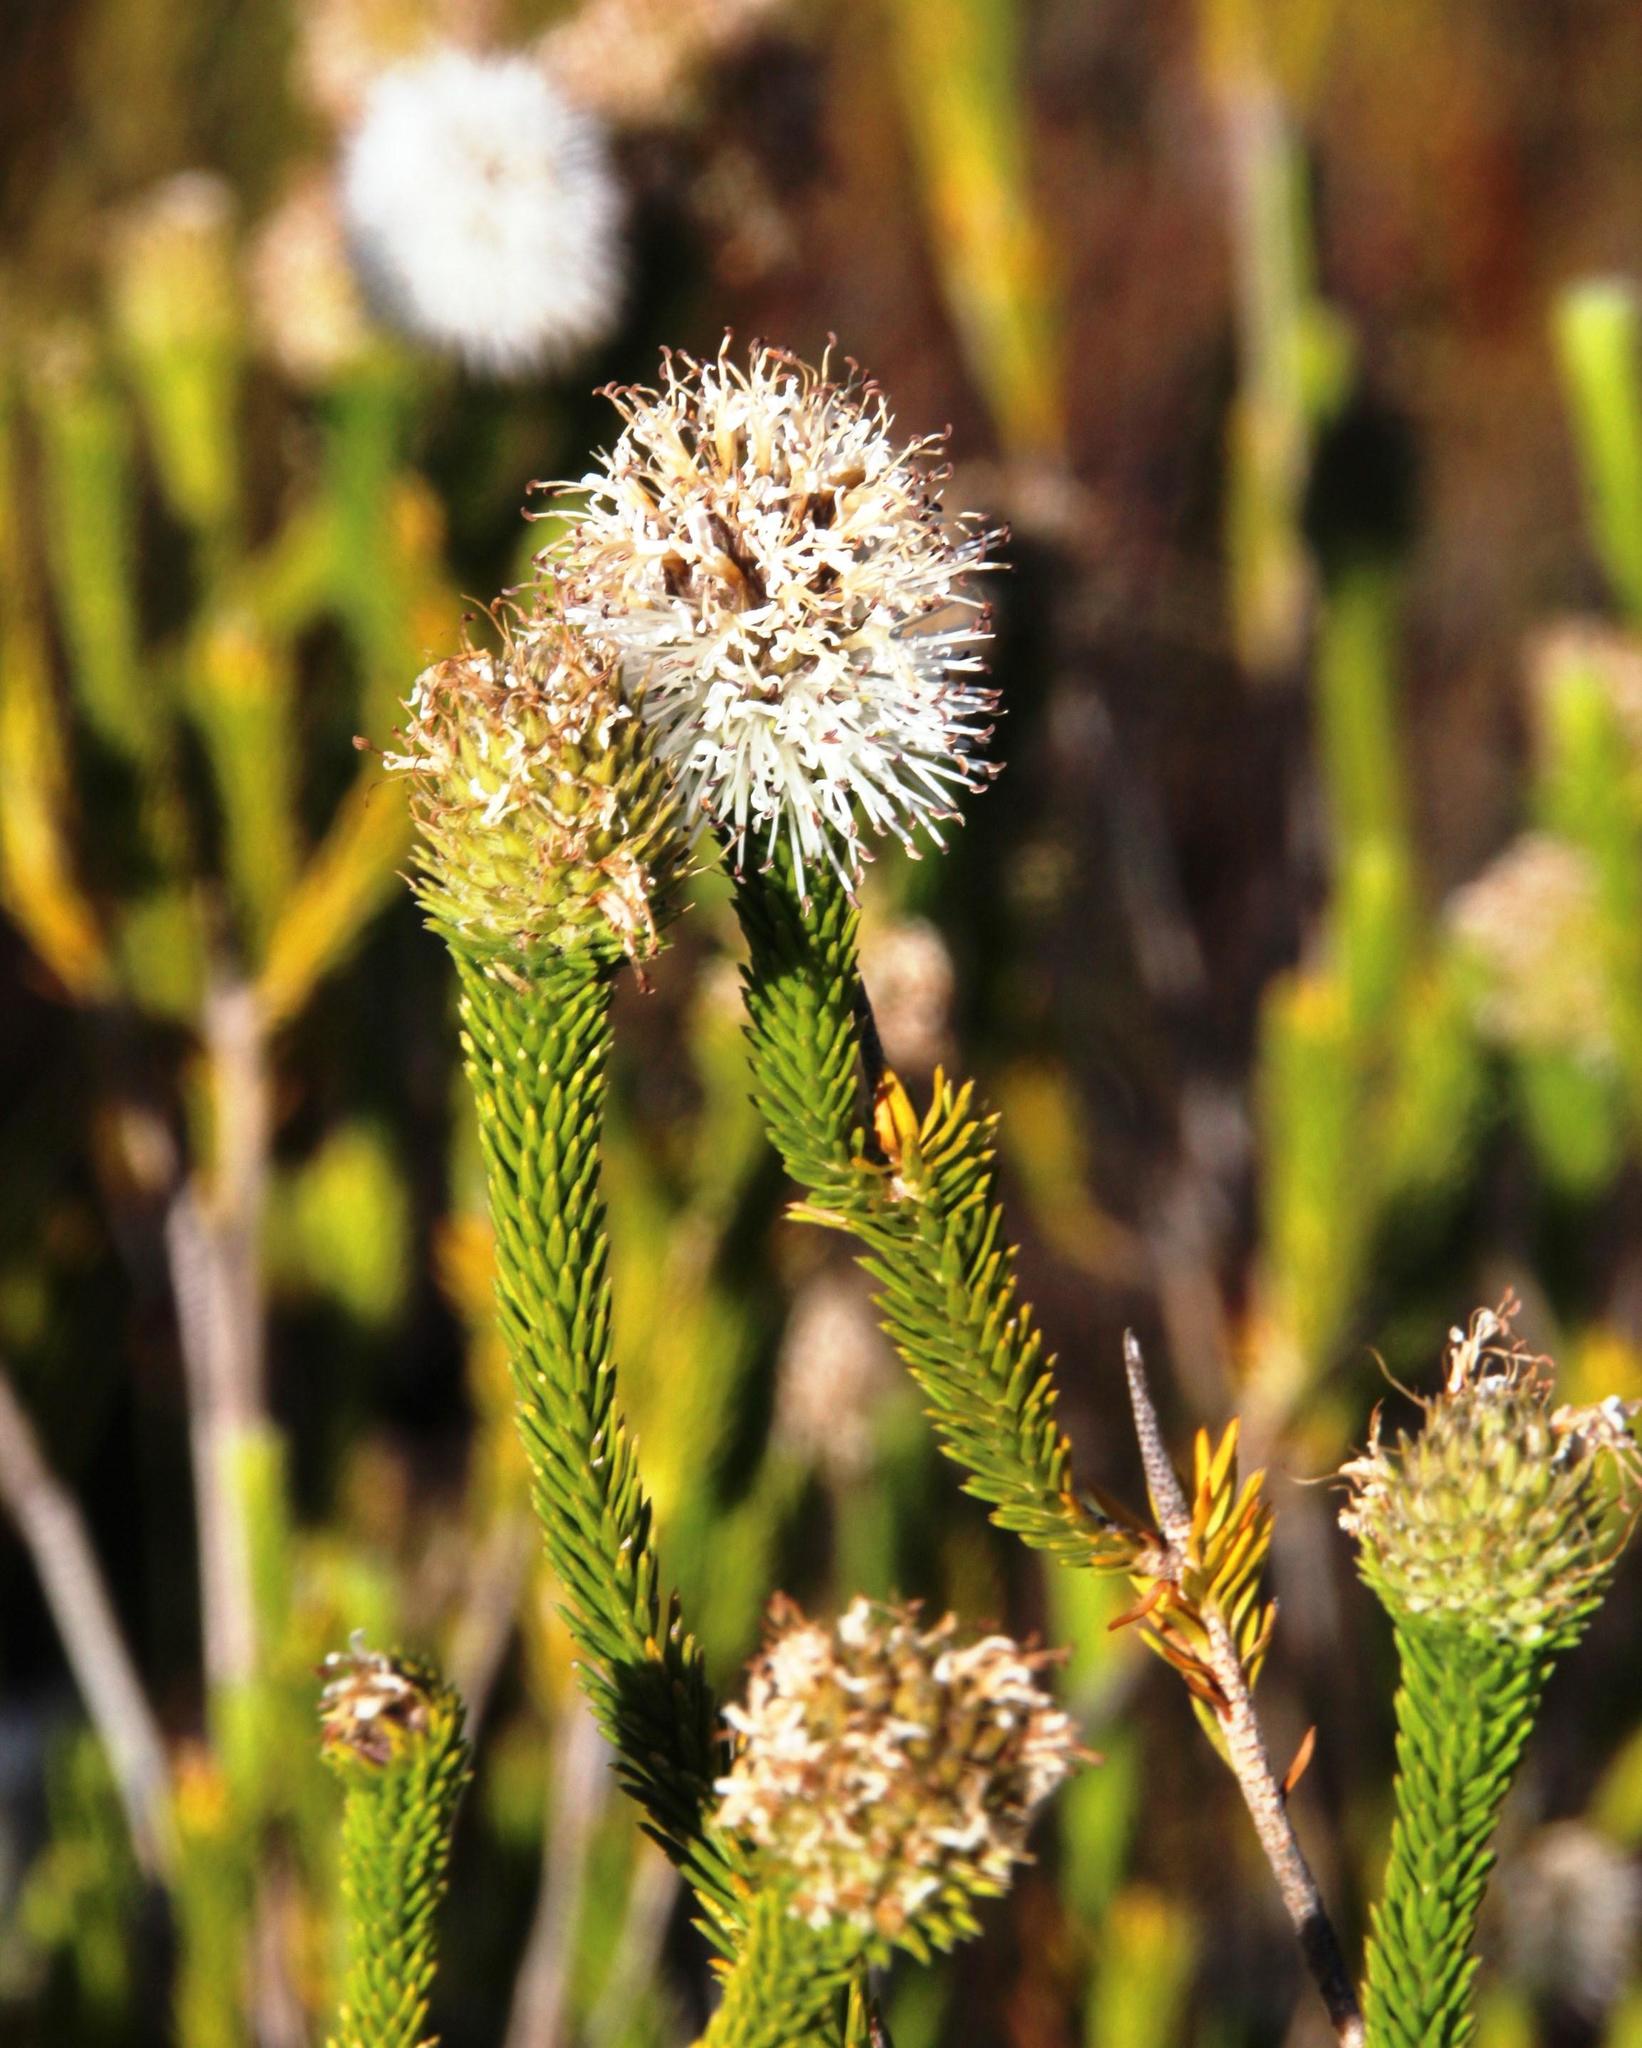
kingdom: Plantae
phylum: Tracheophyta
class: Magnoliopsida
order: Lamiales
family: Stilbaceae
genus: Stilbe
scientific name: Stilbe albiflora
